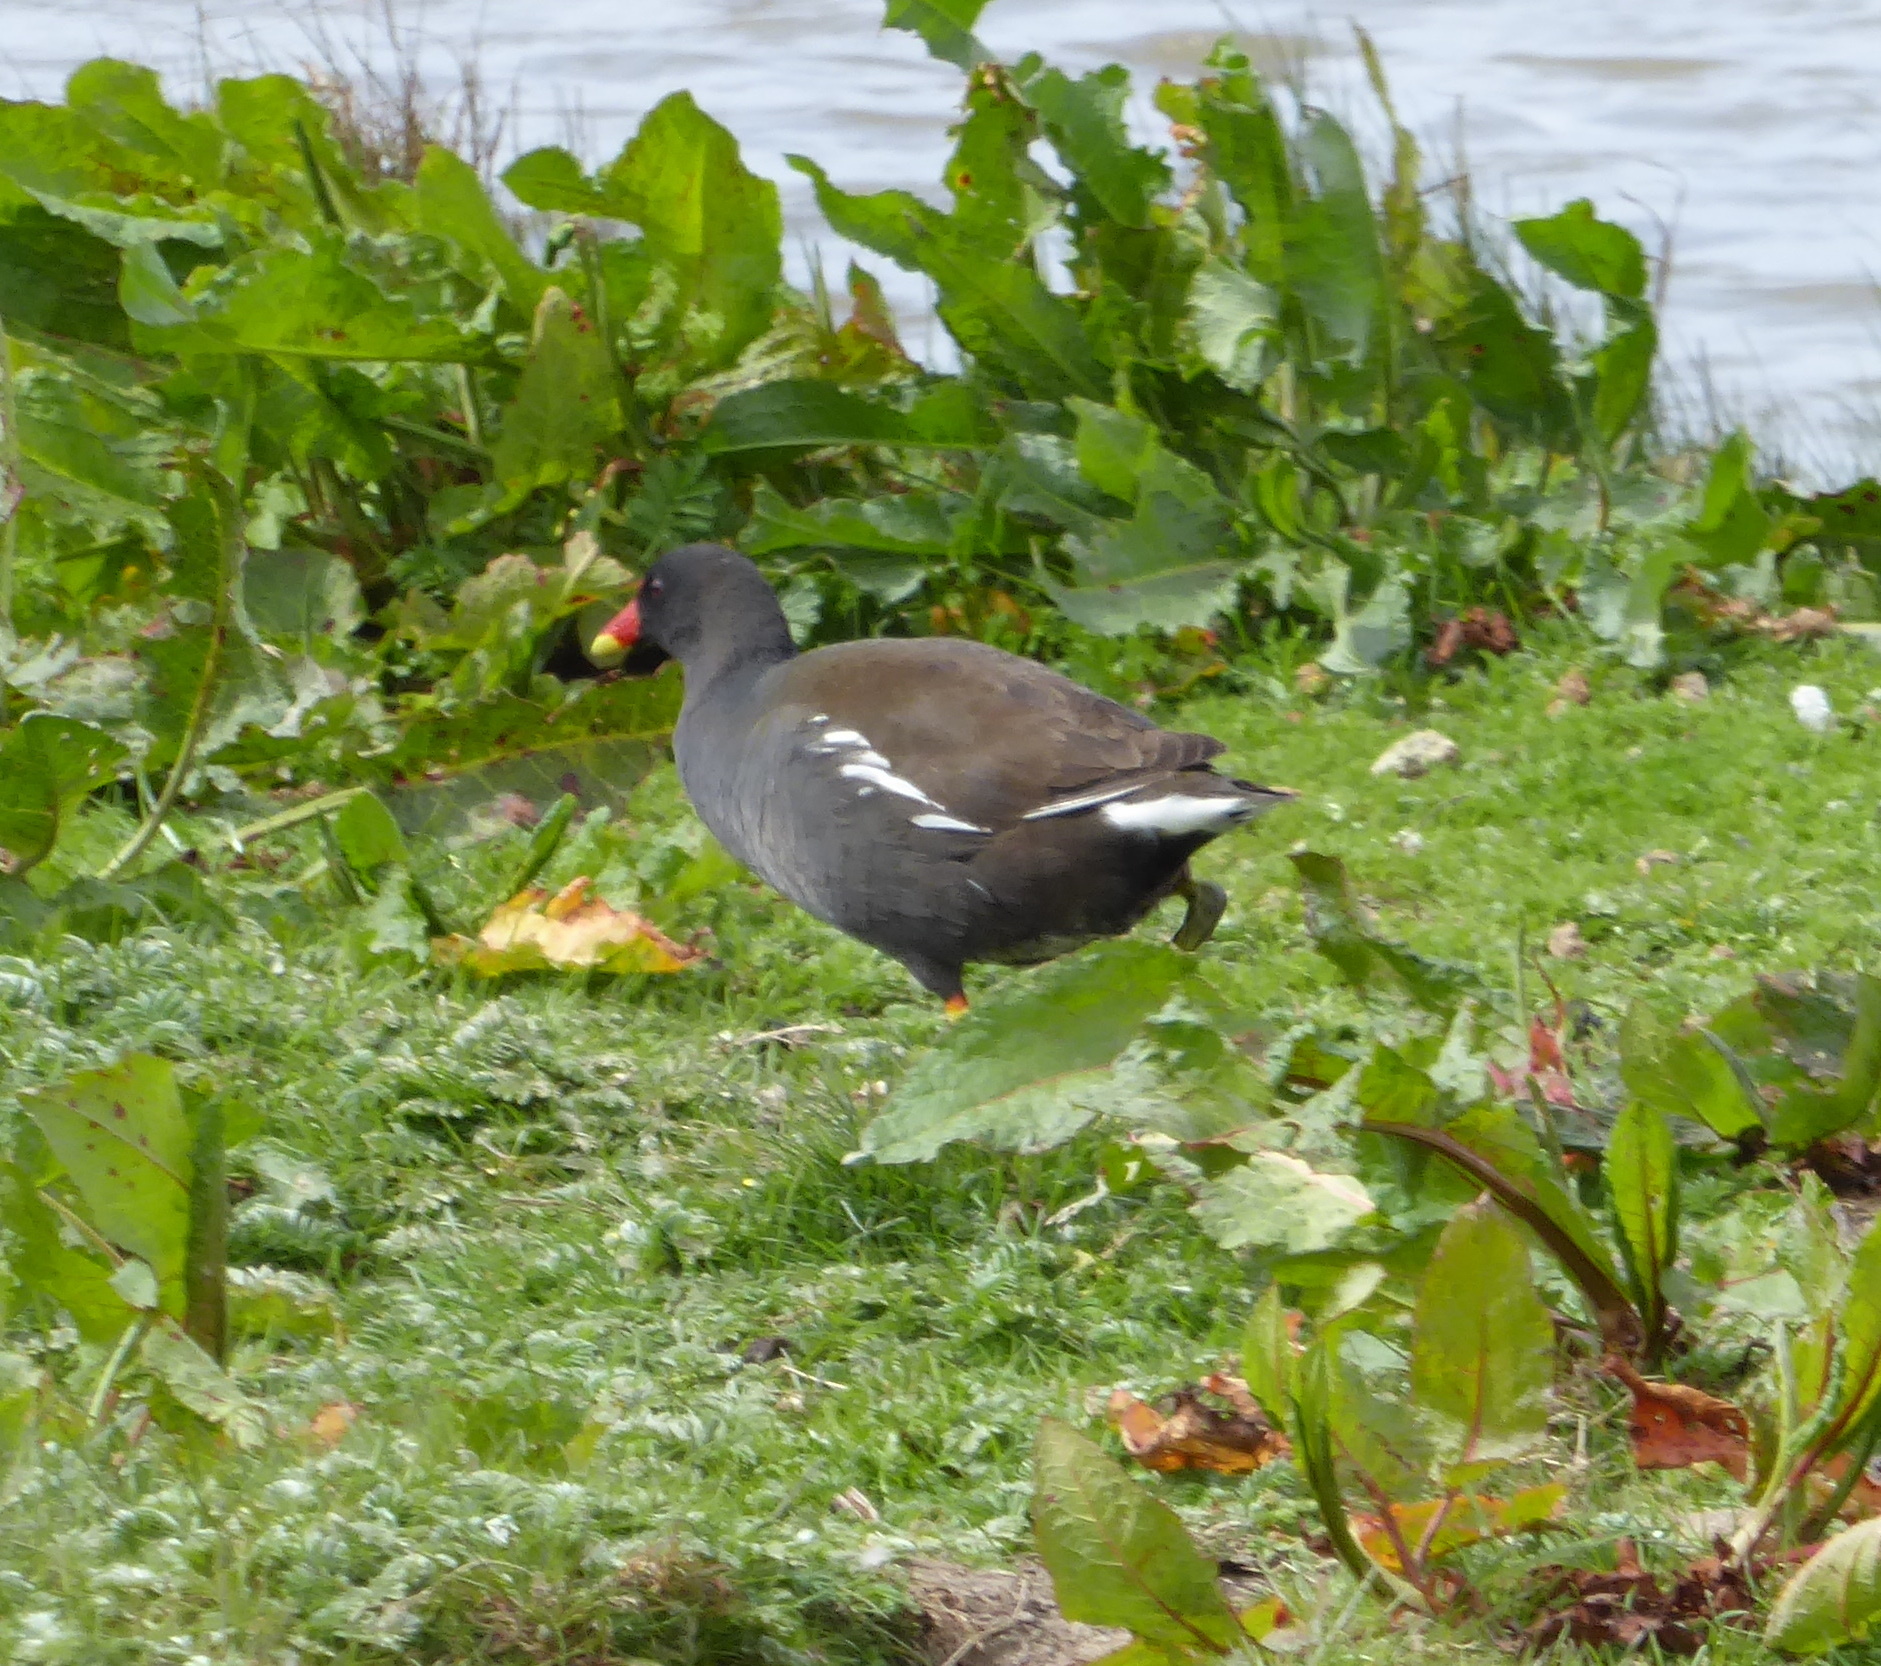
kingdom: Animalia
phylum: Chordata
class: Aves
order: Gruiformes
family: Rallidae
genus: Gallinula
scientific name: Gallinula chloropus
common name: Common moorhen
